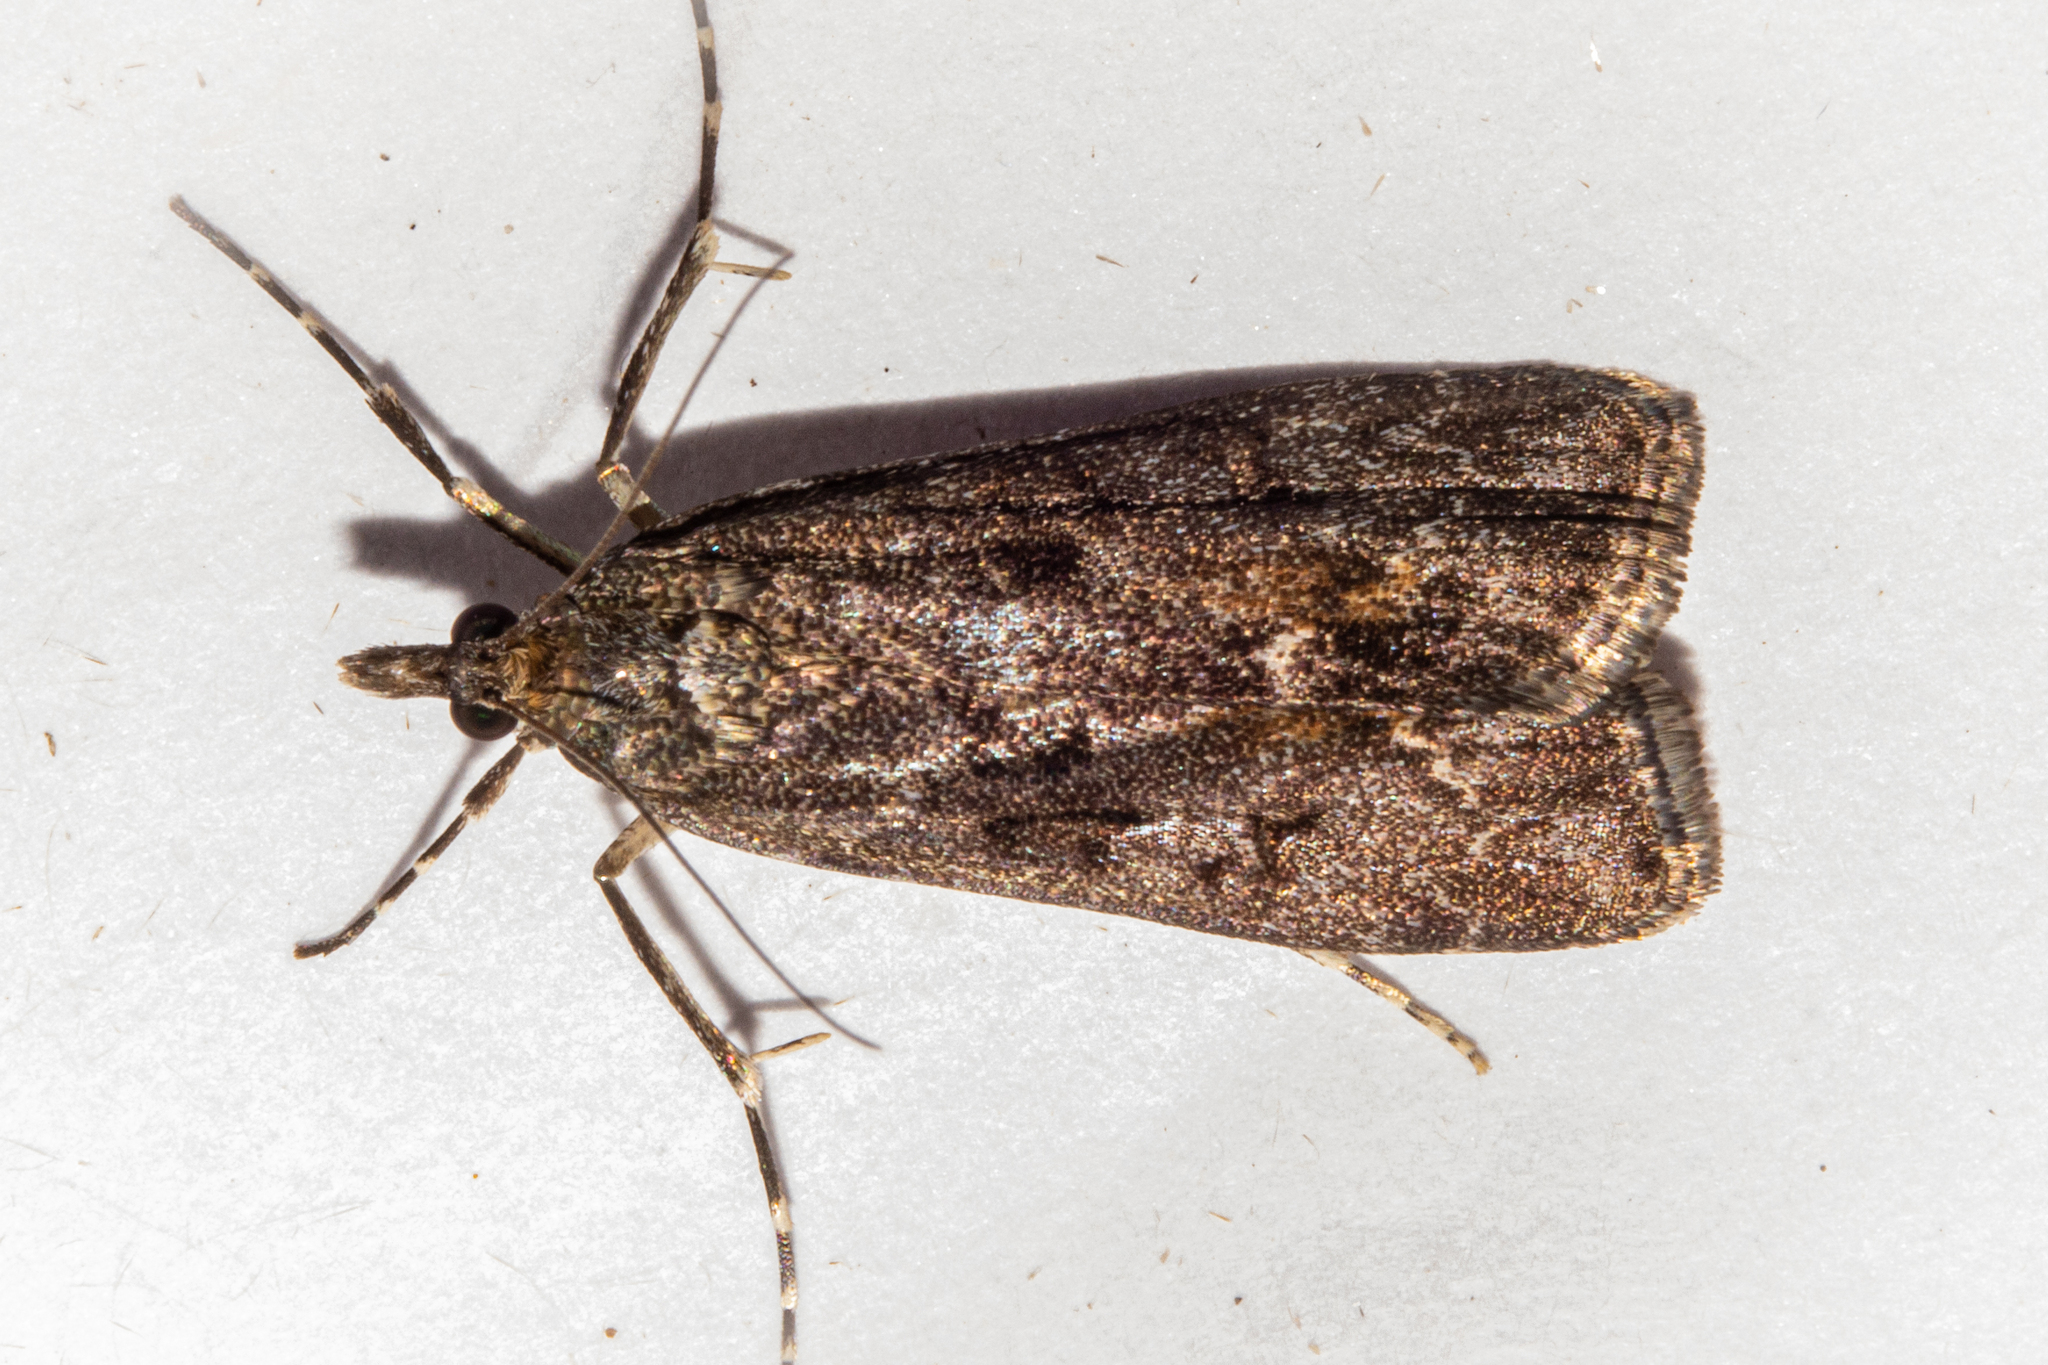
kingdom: Animalia
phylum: Arthropoda
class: Insecta
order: Lepidoptera
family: Crambidae
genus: Eudonia
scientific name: Eudonia submarginalis
